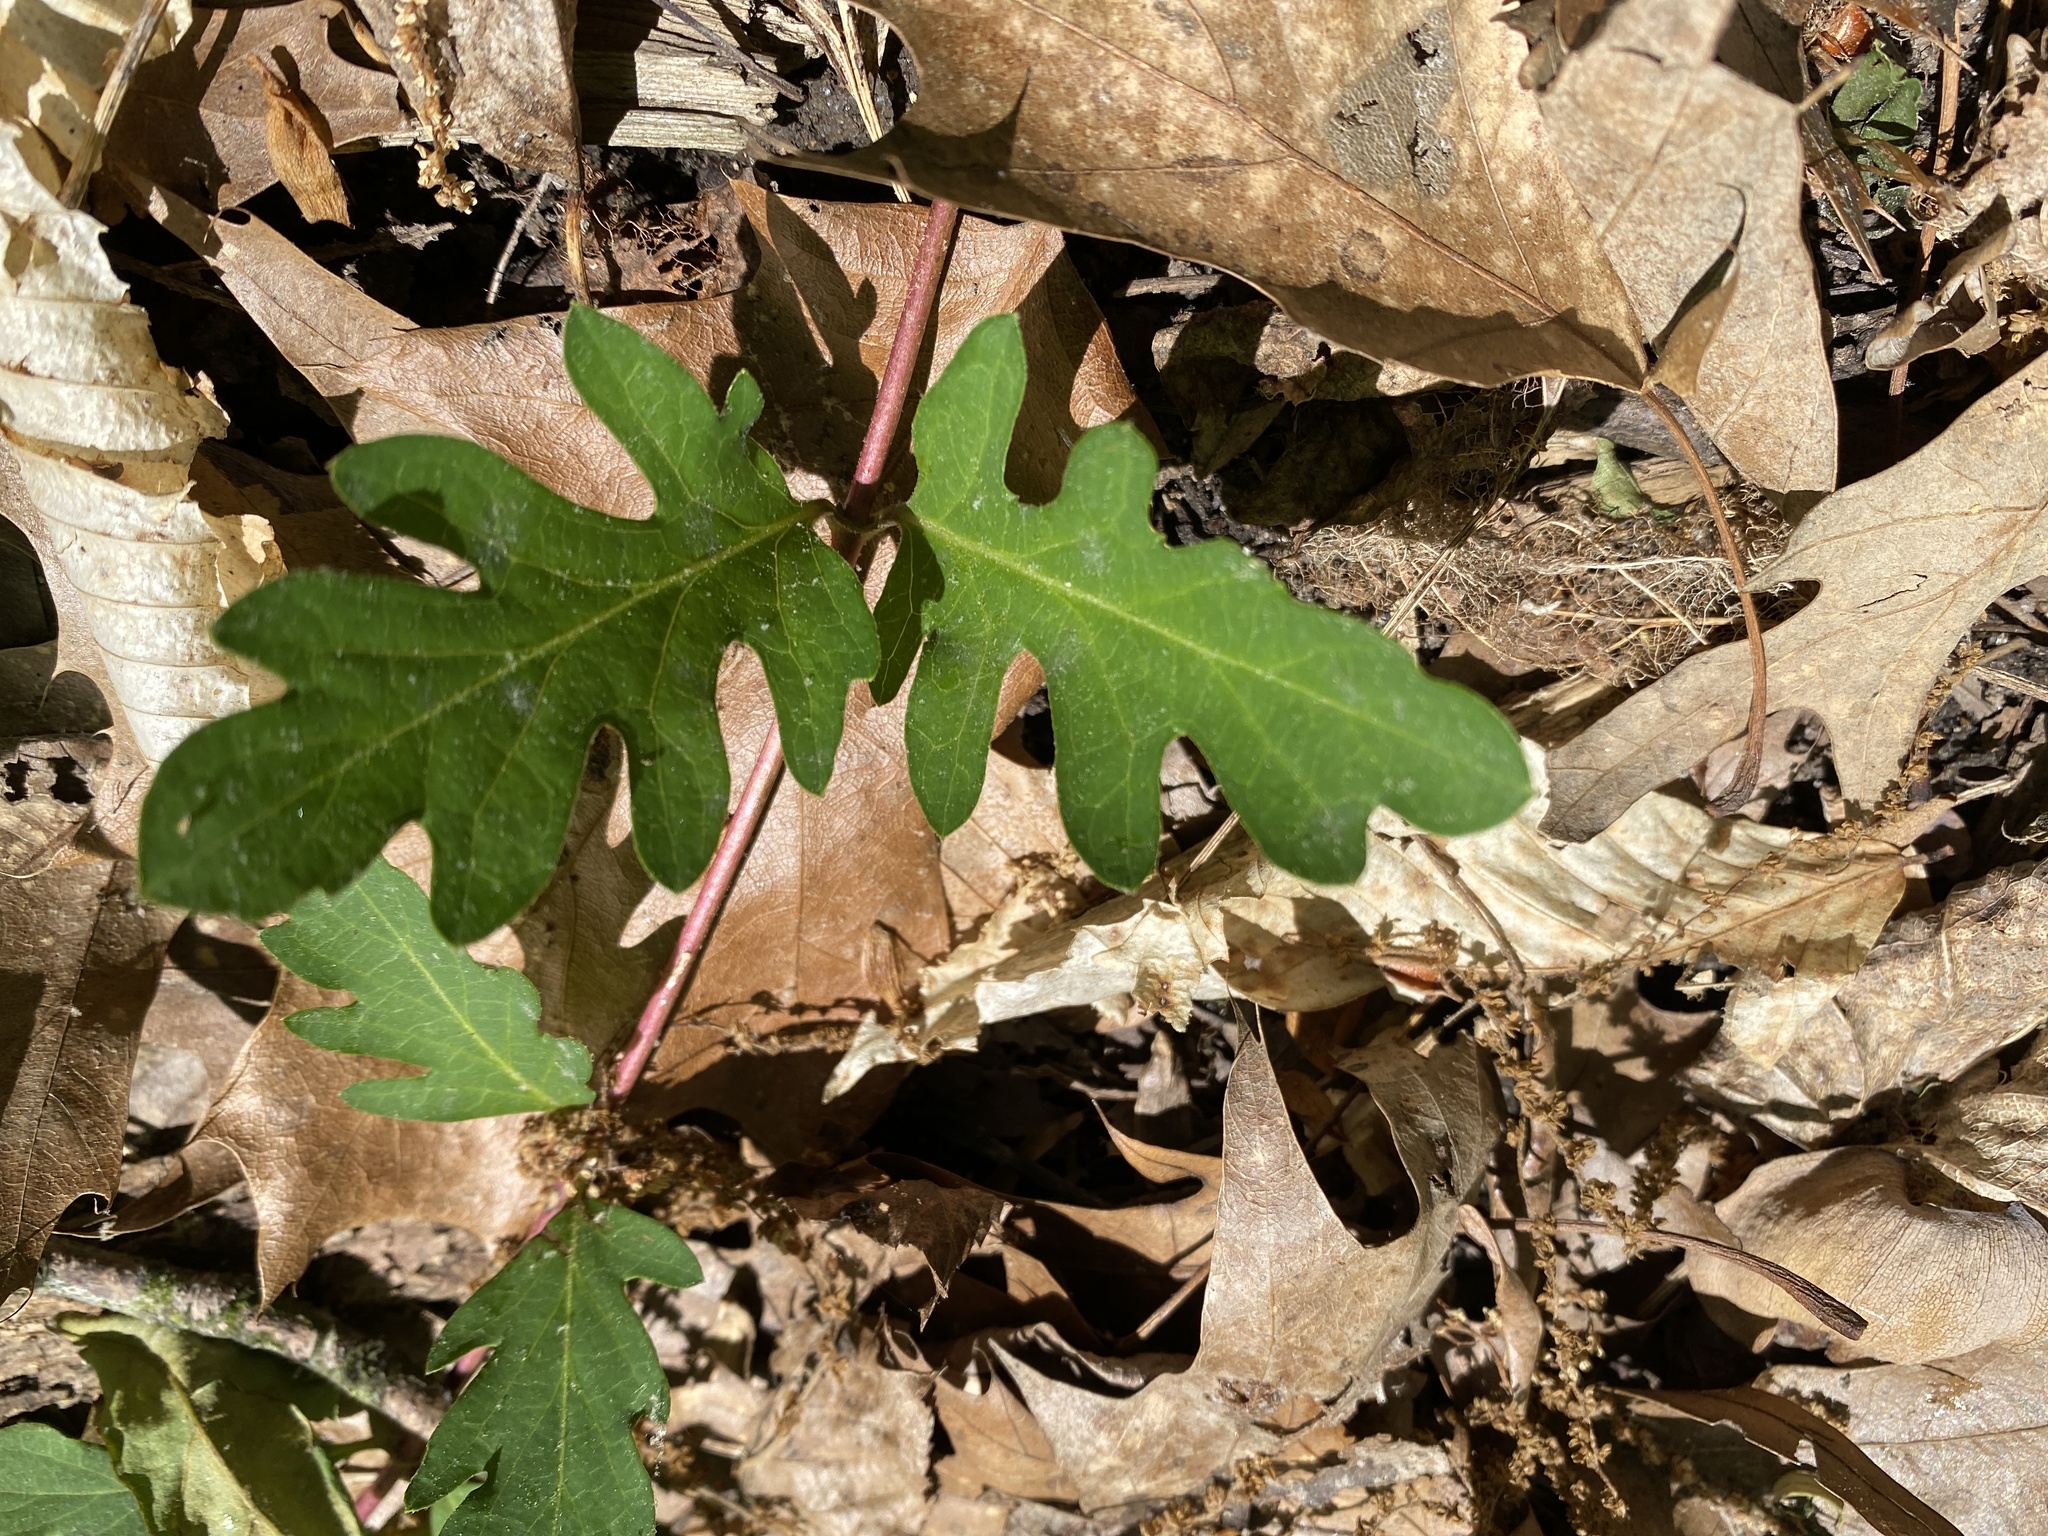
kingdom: Plantae
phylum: Tracheophyta
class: Magnoliopsida
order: Dipsacales
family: Caprifoliaceae
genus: Lonicera
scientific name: Lonicera japonica
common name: Japanese honeysuckle
